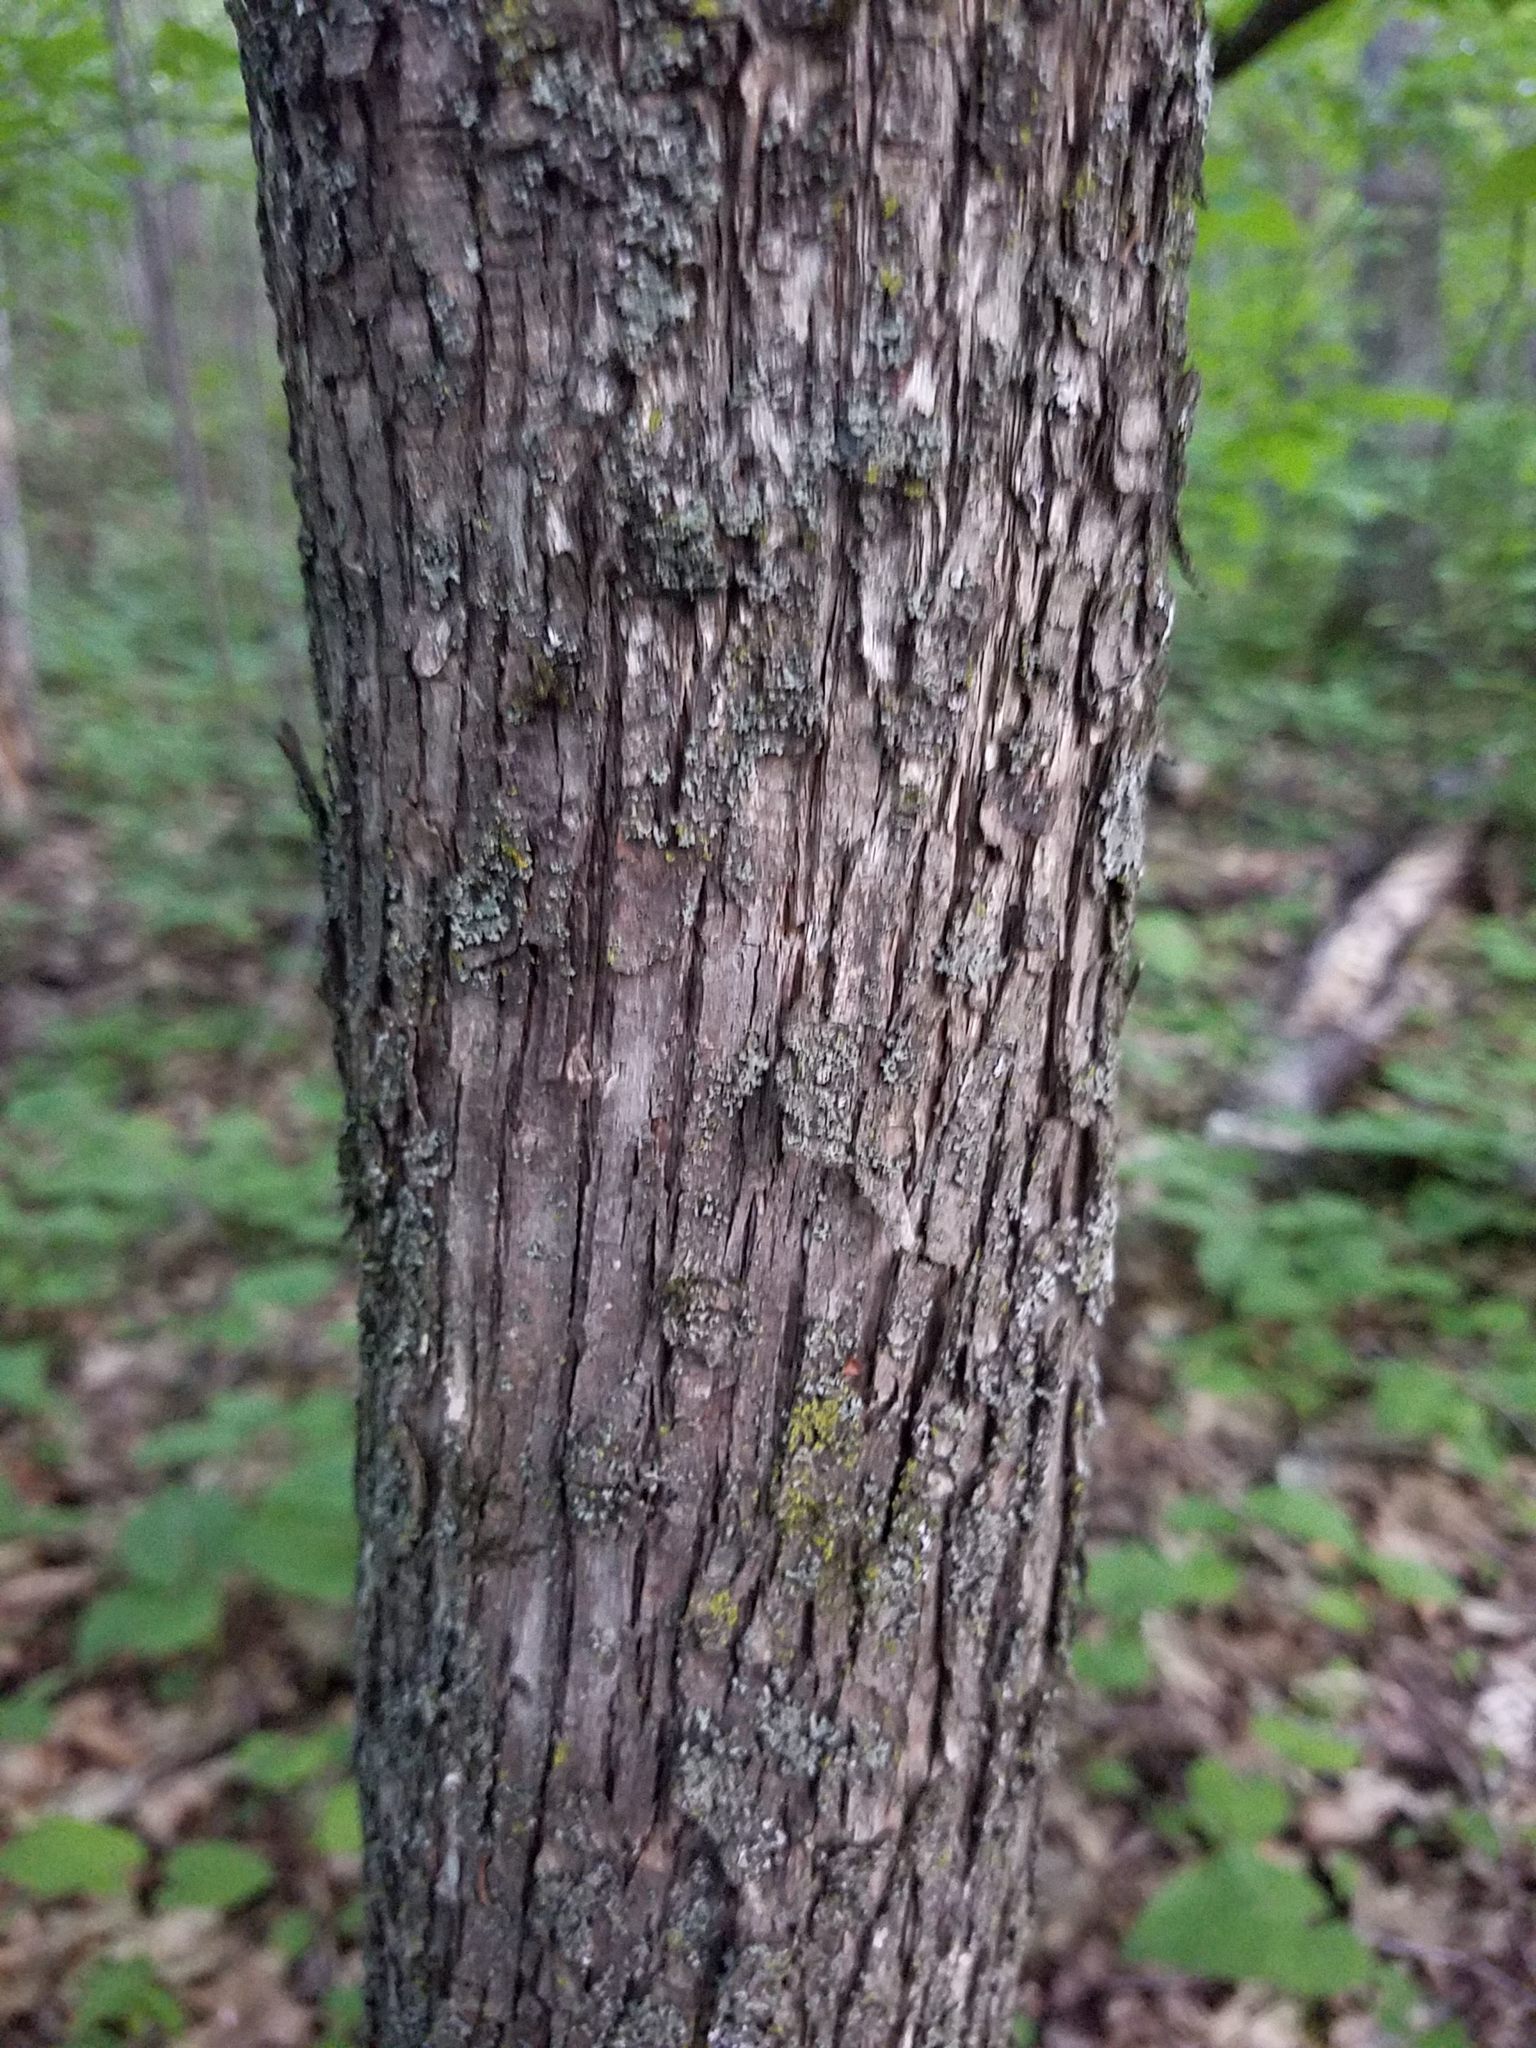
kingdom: Plantae
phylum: Tracheophyta
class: Magnoliopsida
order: Fagales
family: Betulaceae
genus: Ostrya
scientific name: Ostrya virginiana
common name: Ironwood
